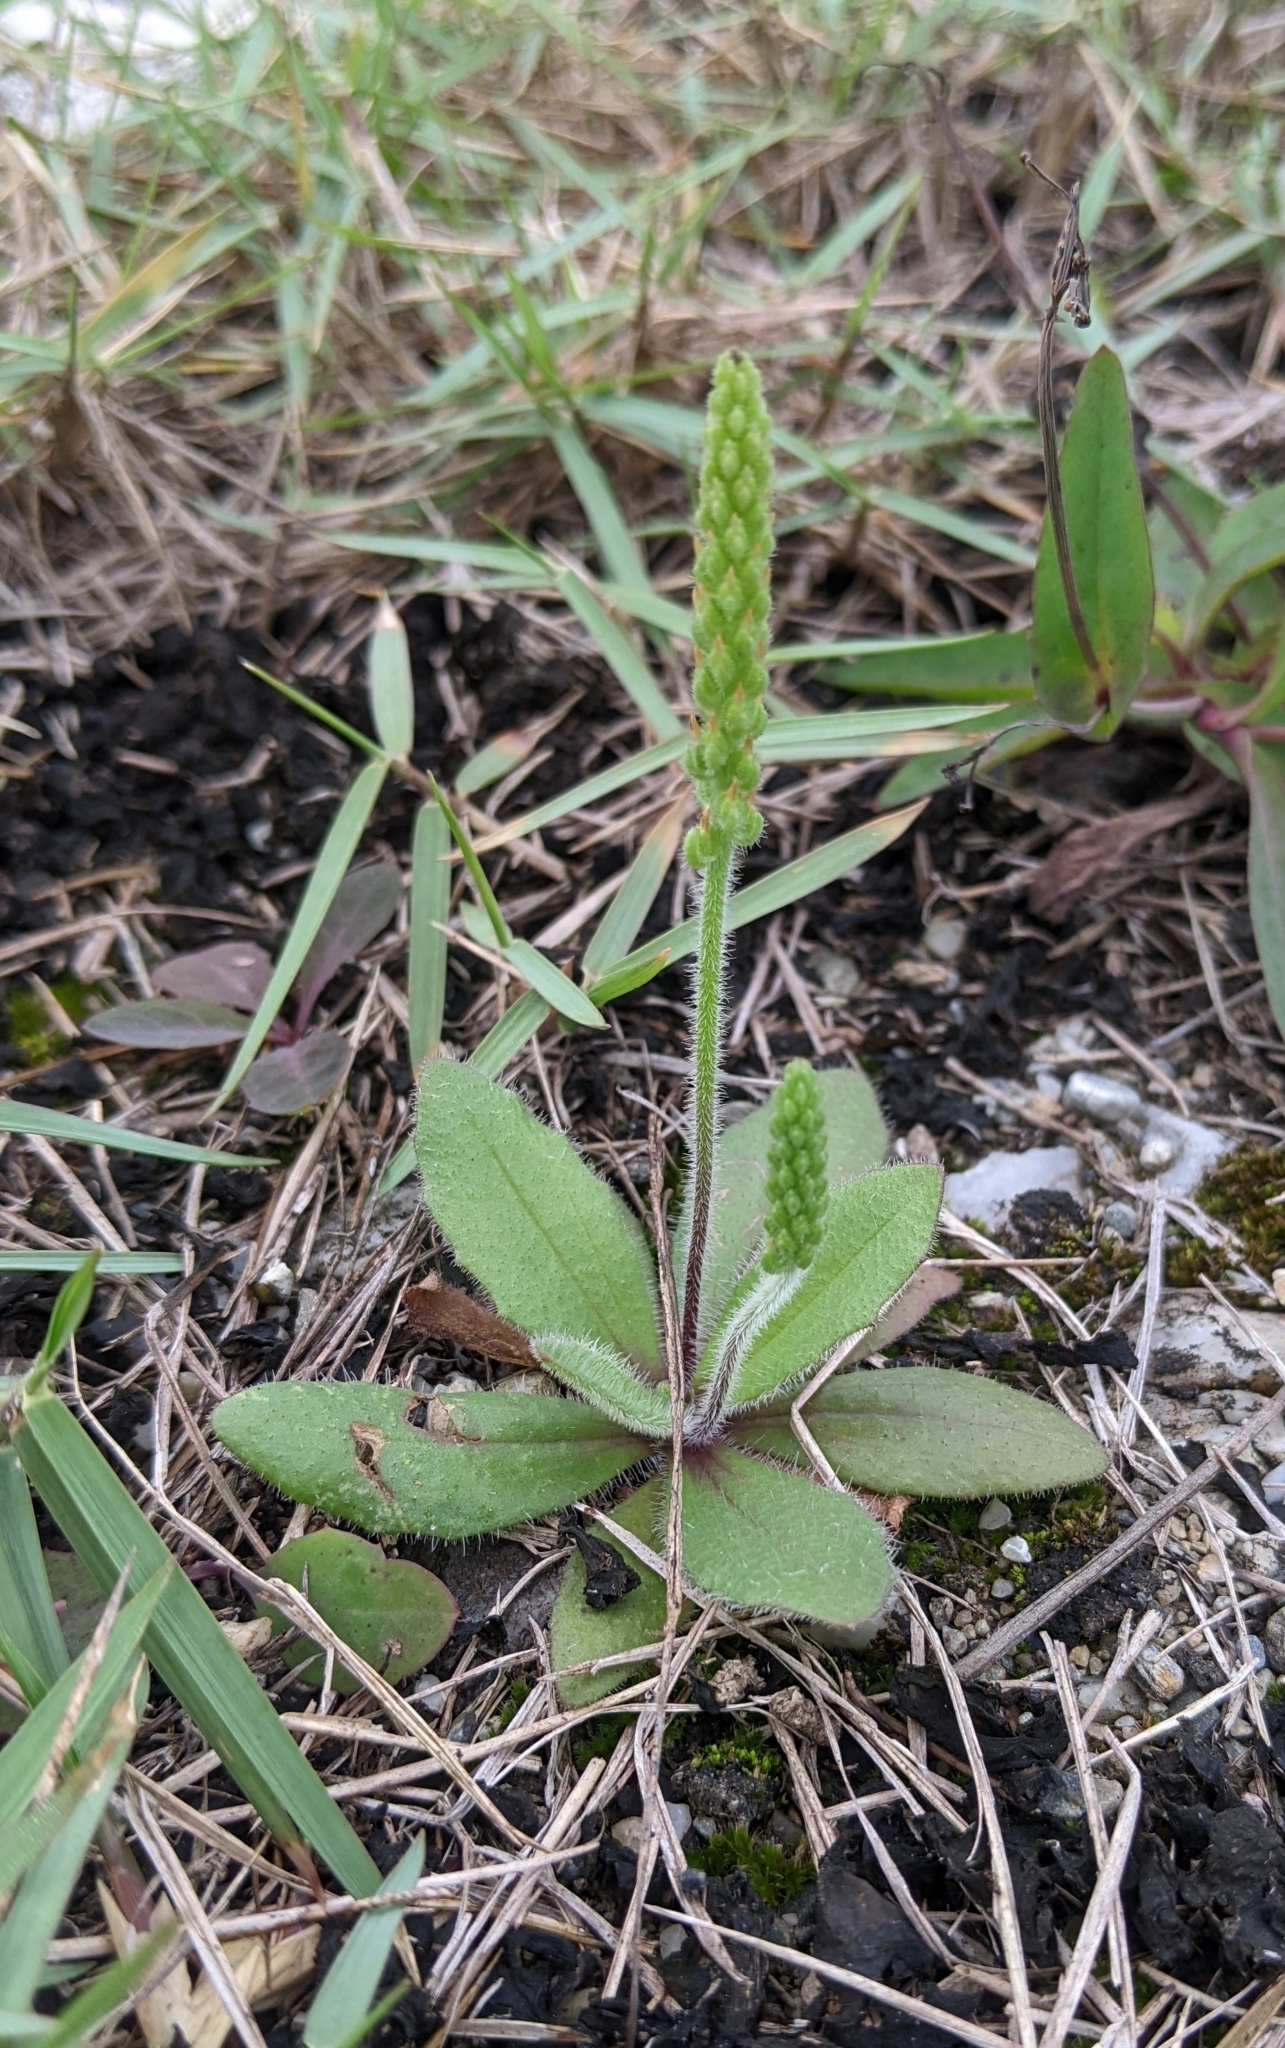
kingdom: Plantae
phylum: Tracheophyta
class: Magnoliopsida
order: Lamiales
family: Plantaginaceae
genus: Plantago
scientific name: Plantago virginica
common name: Hoary plantain
